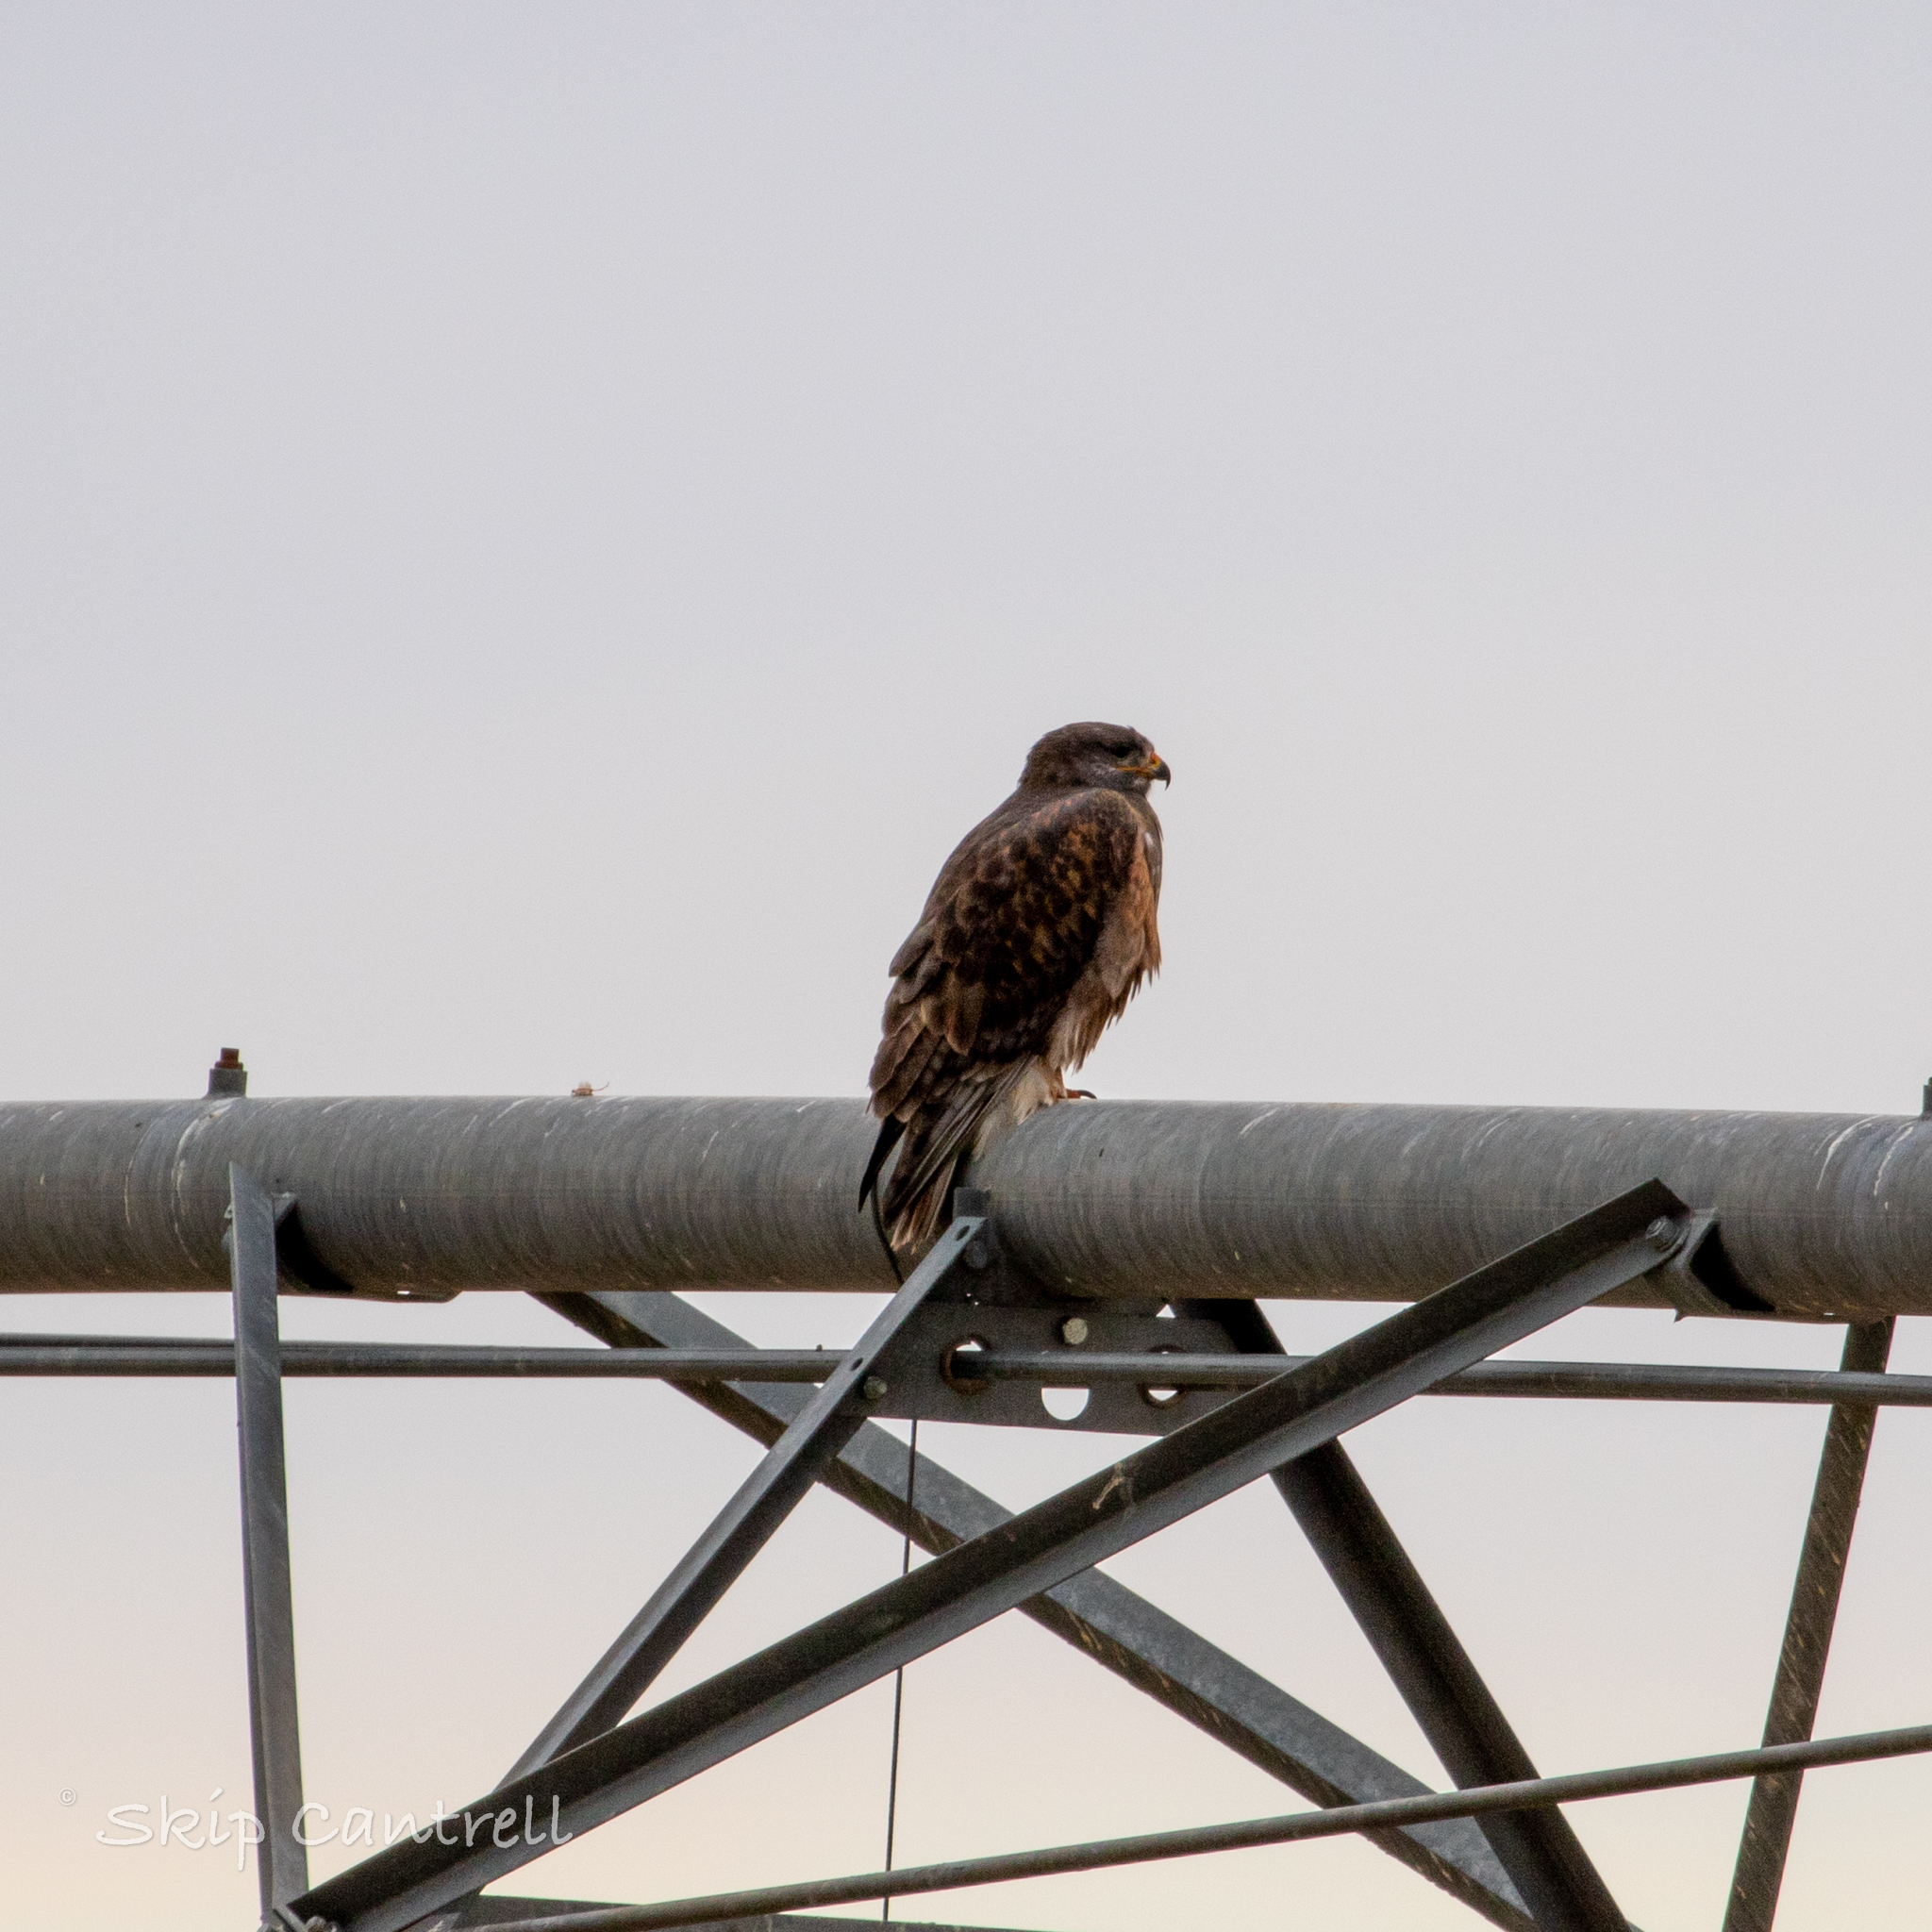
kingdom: Animalia
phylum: Chordata
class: Aves
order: Accipitriformes
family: Accipitridae
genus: Buteo
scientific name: Buteo regalis
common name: Ferruginous hawk
